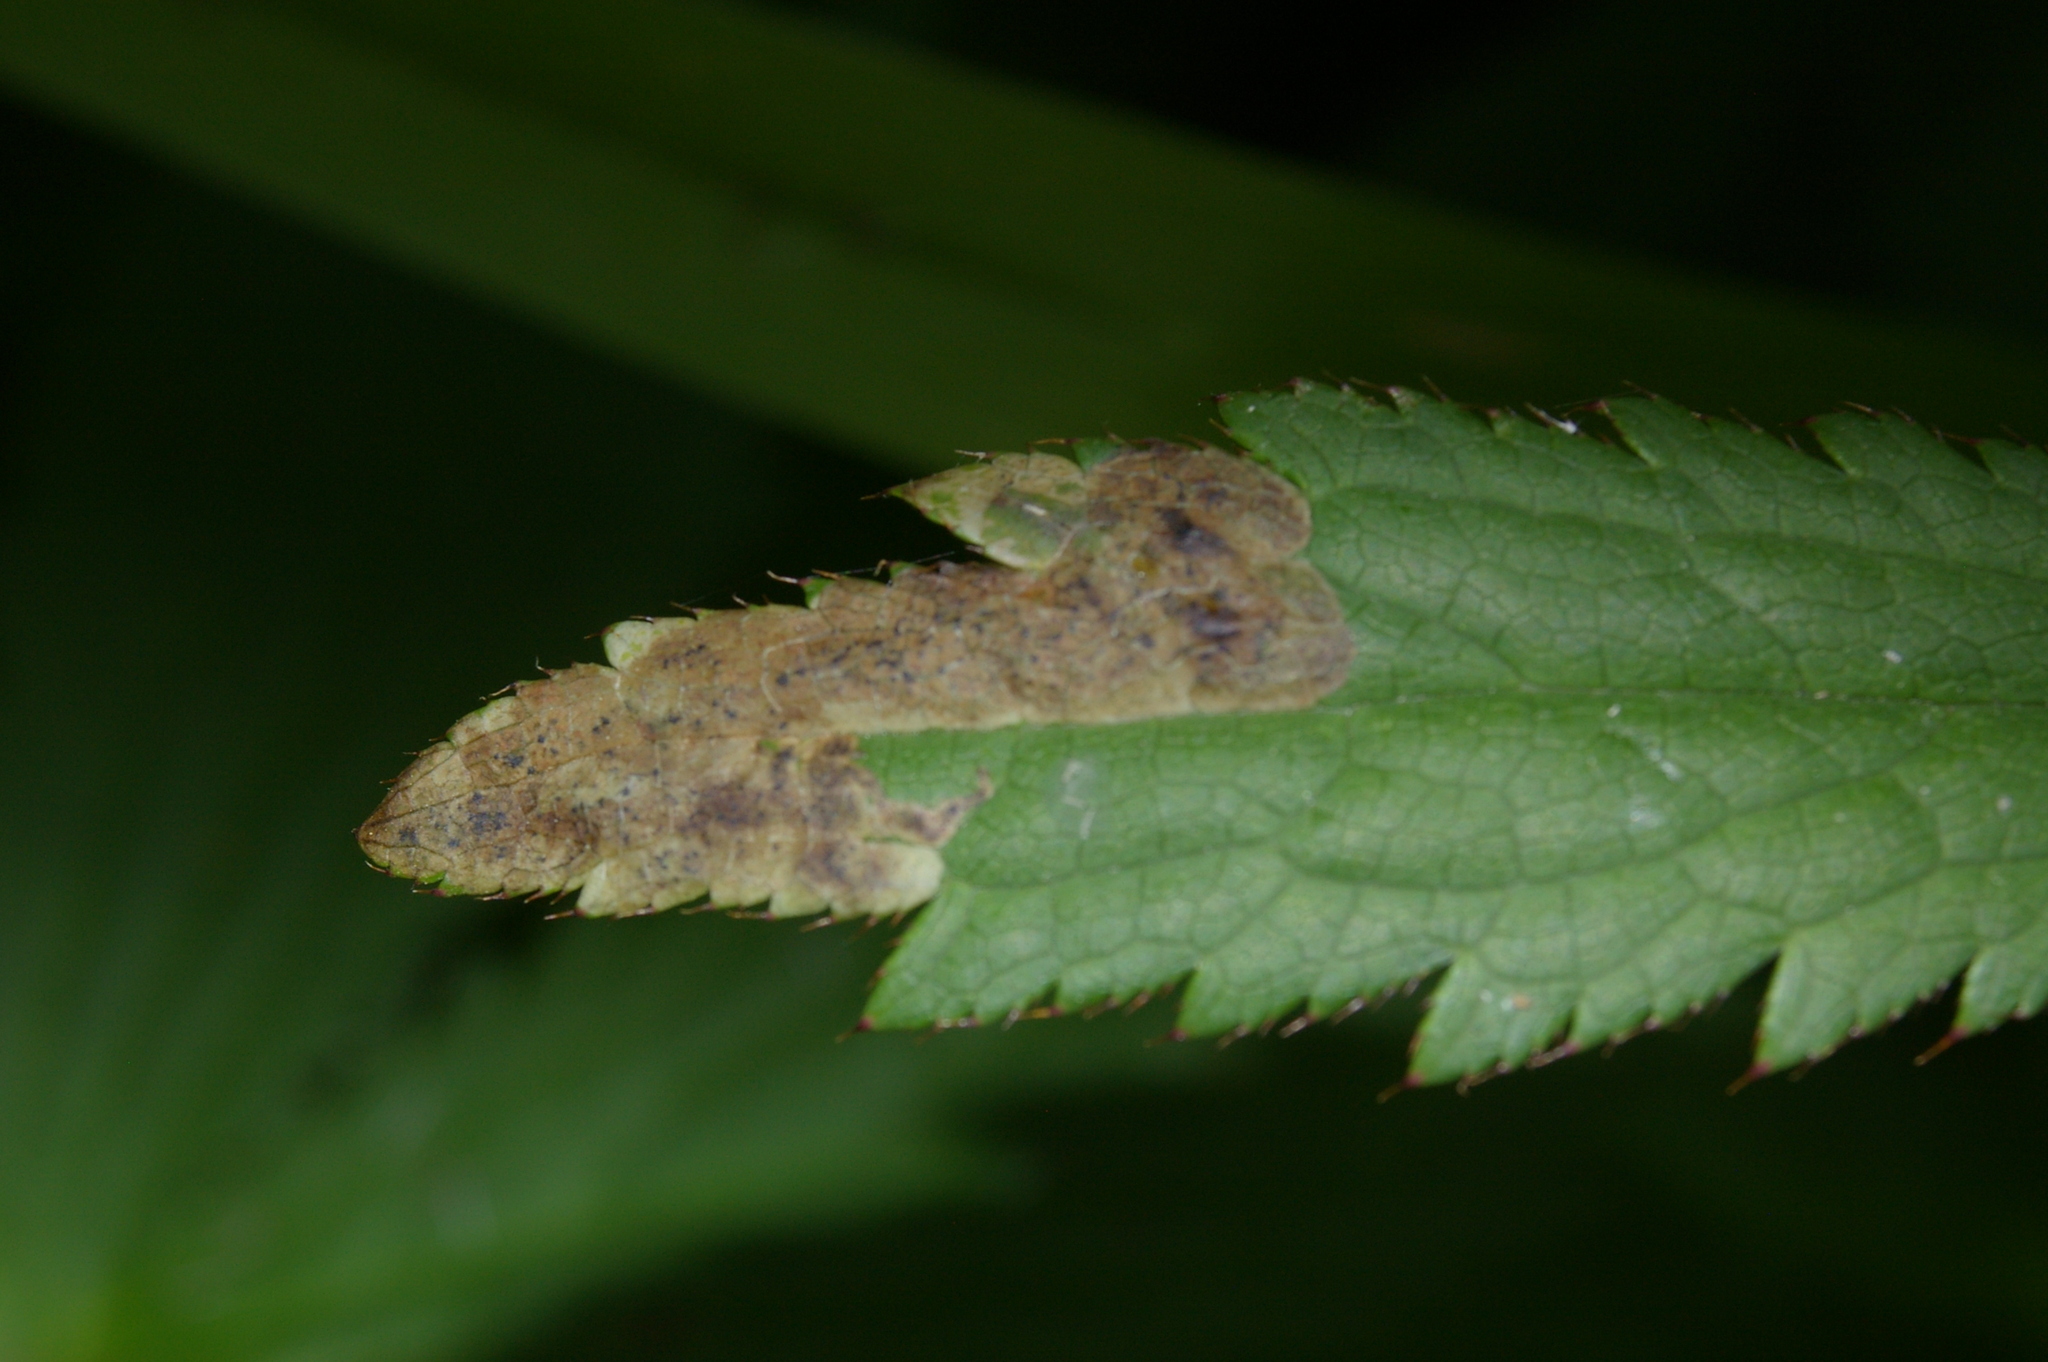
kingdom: Animalia
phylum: Arthropoda
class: Insecta
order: Diptera
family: Agromyzidae
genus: Phytomyza
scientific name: Phytomyza astrantiae
